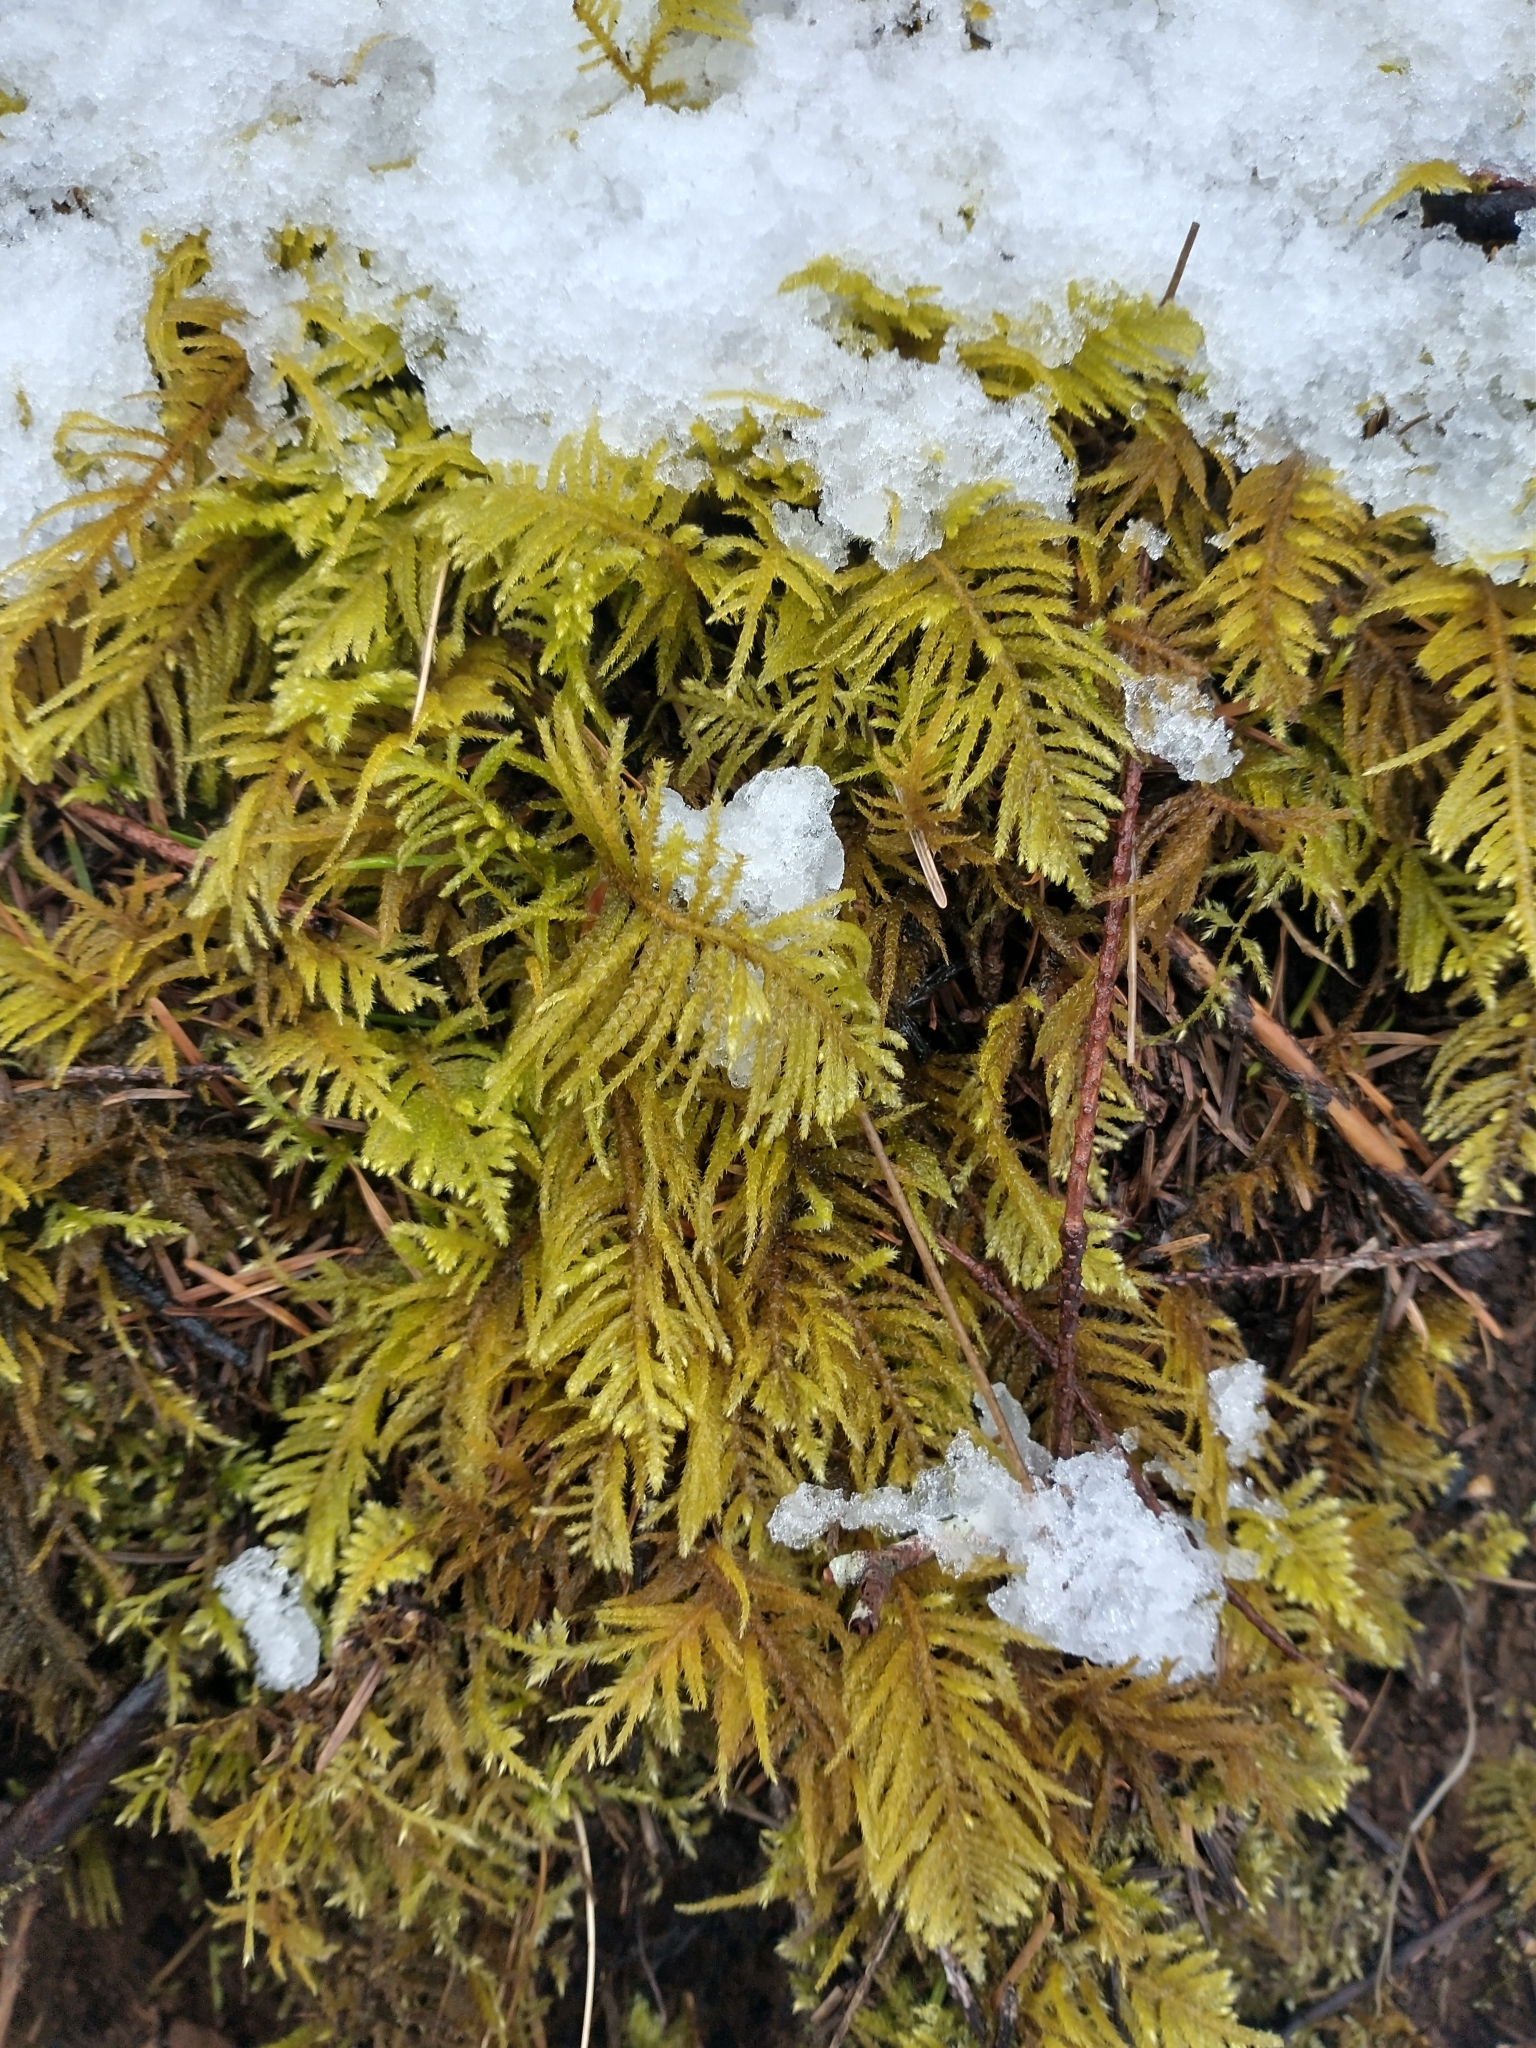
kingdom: Plantae
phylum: Bryophyta
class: Bryopsida
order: Hypnales
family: Brachytheciaceae
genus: Kindbergia
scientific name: Kindbergia oregana
